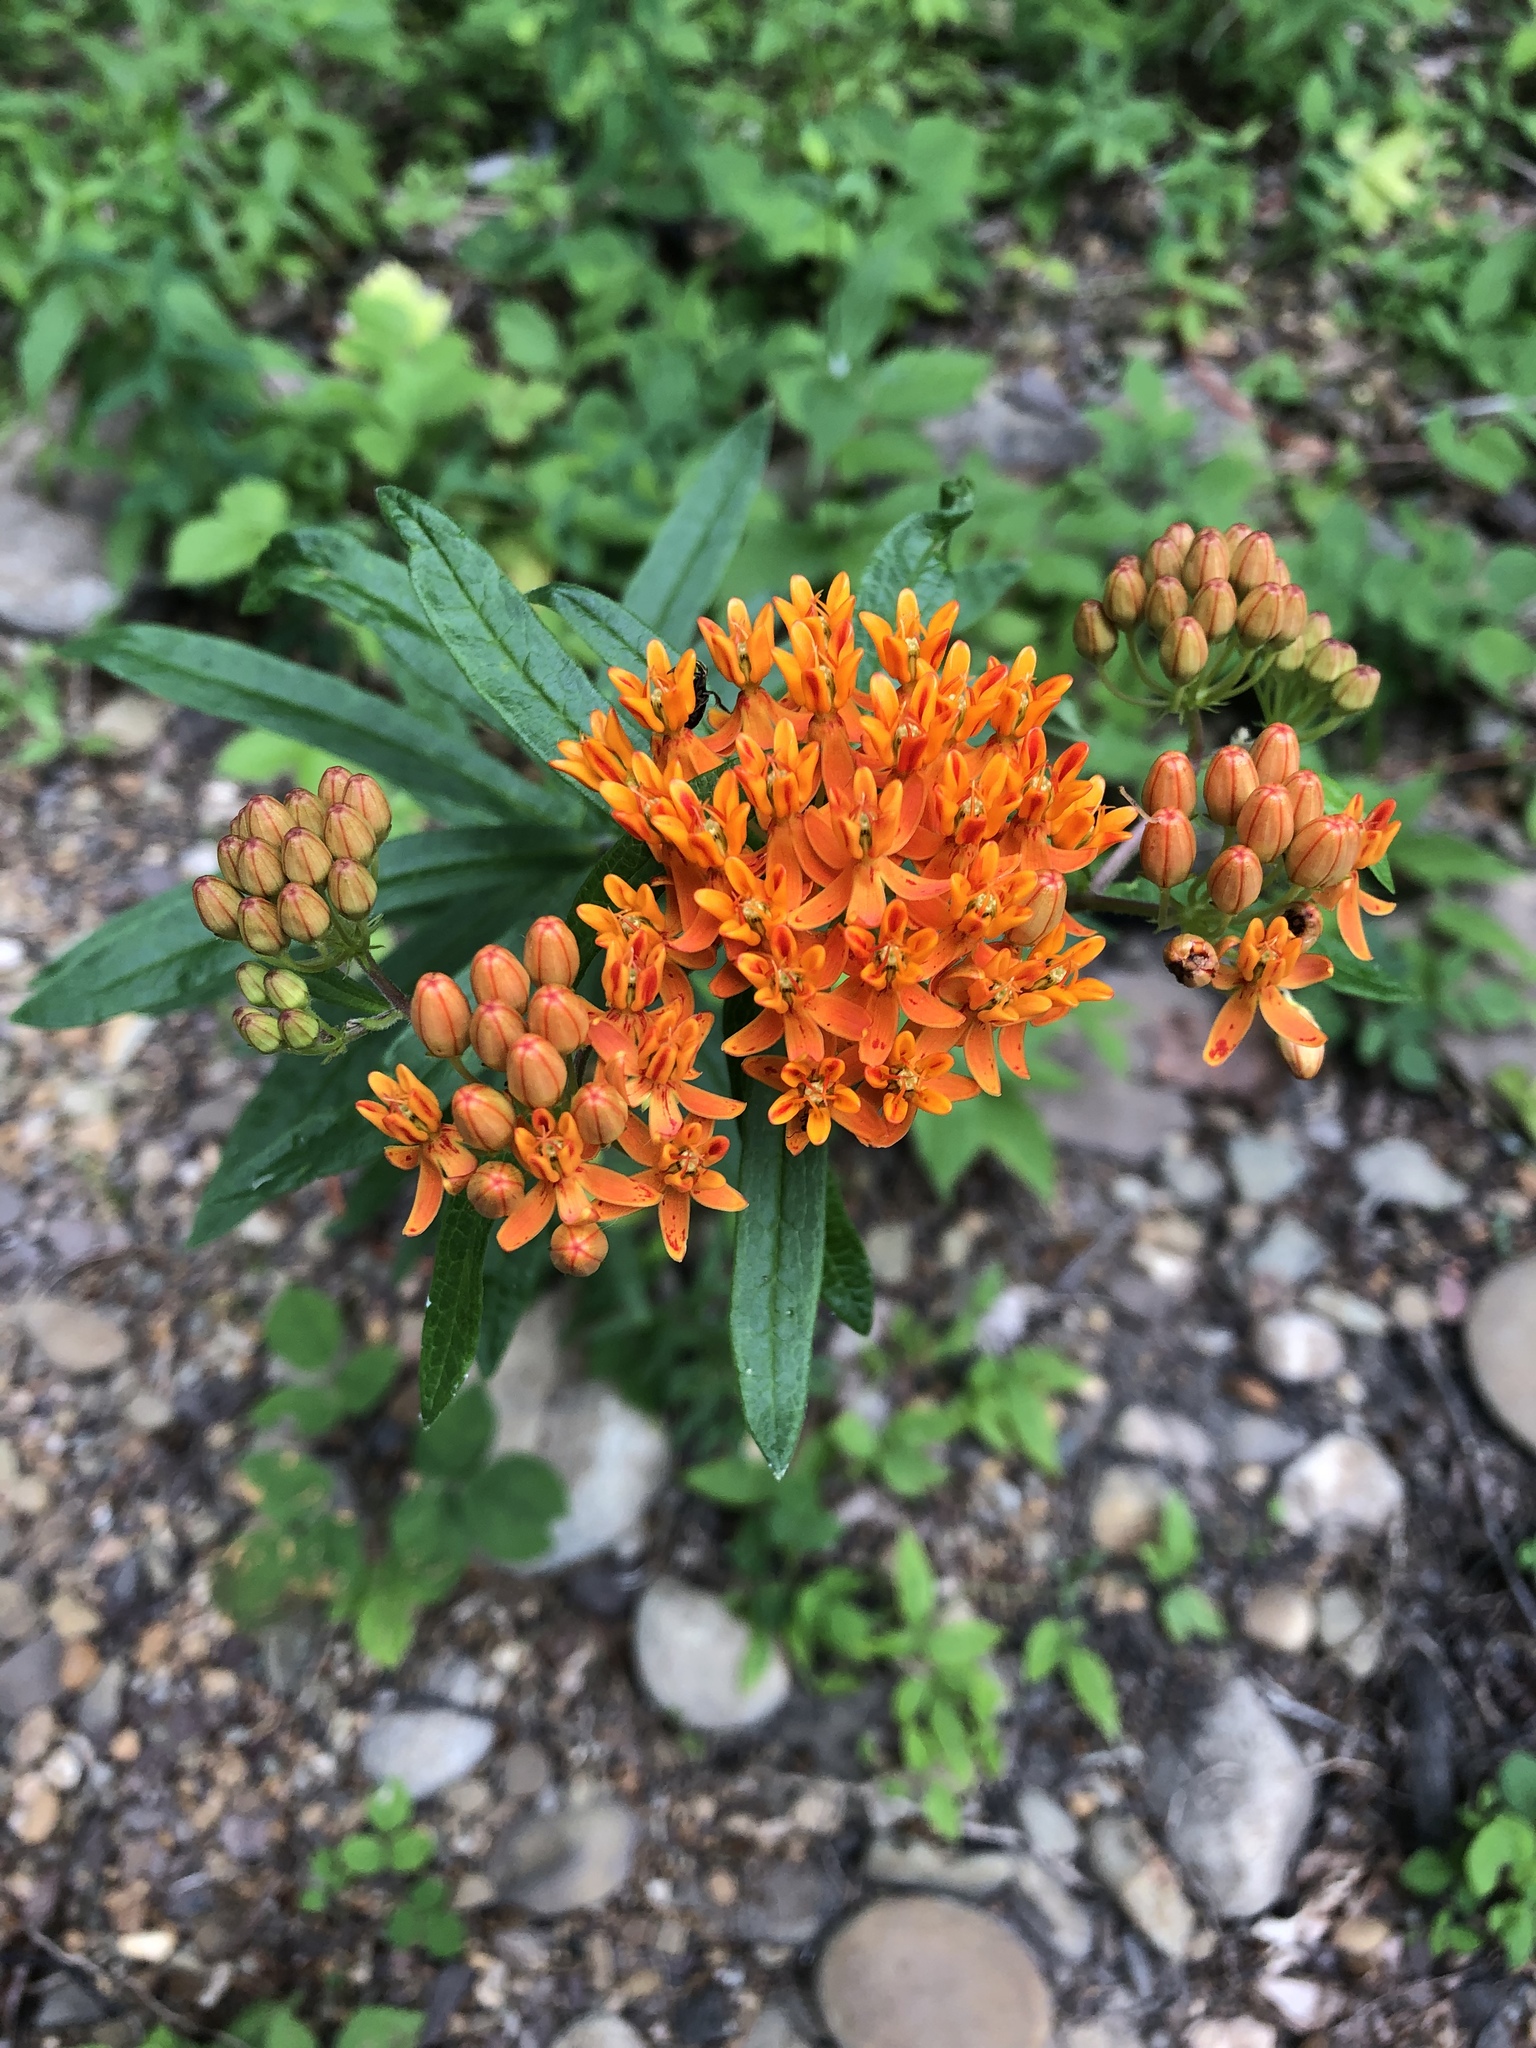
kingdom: Plantae
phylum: Tracheophyta
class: Magnoliopsida
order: Gentianales
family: Apocynaceae
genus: Asclepias
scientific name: Asclepias tuberosa
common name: Butterfly milkweed
